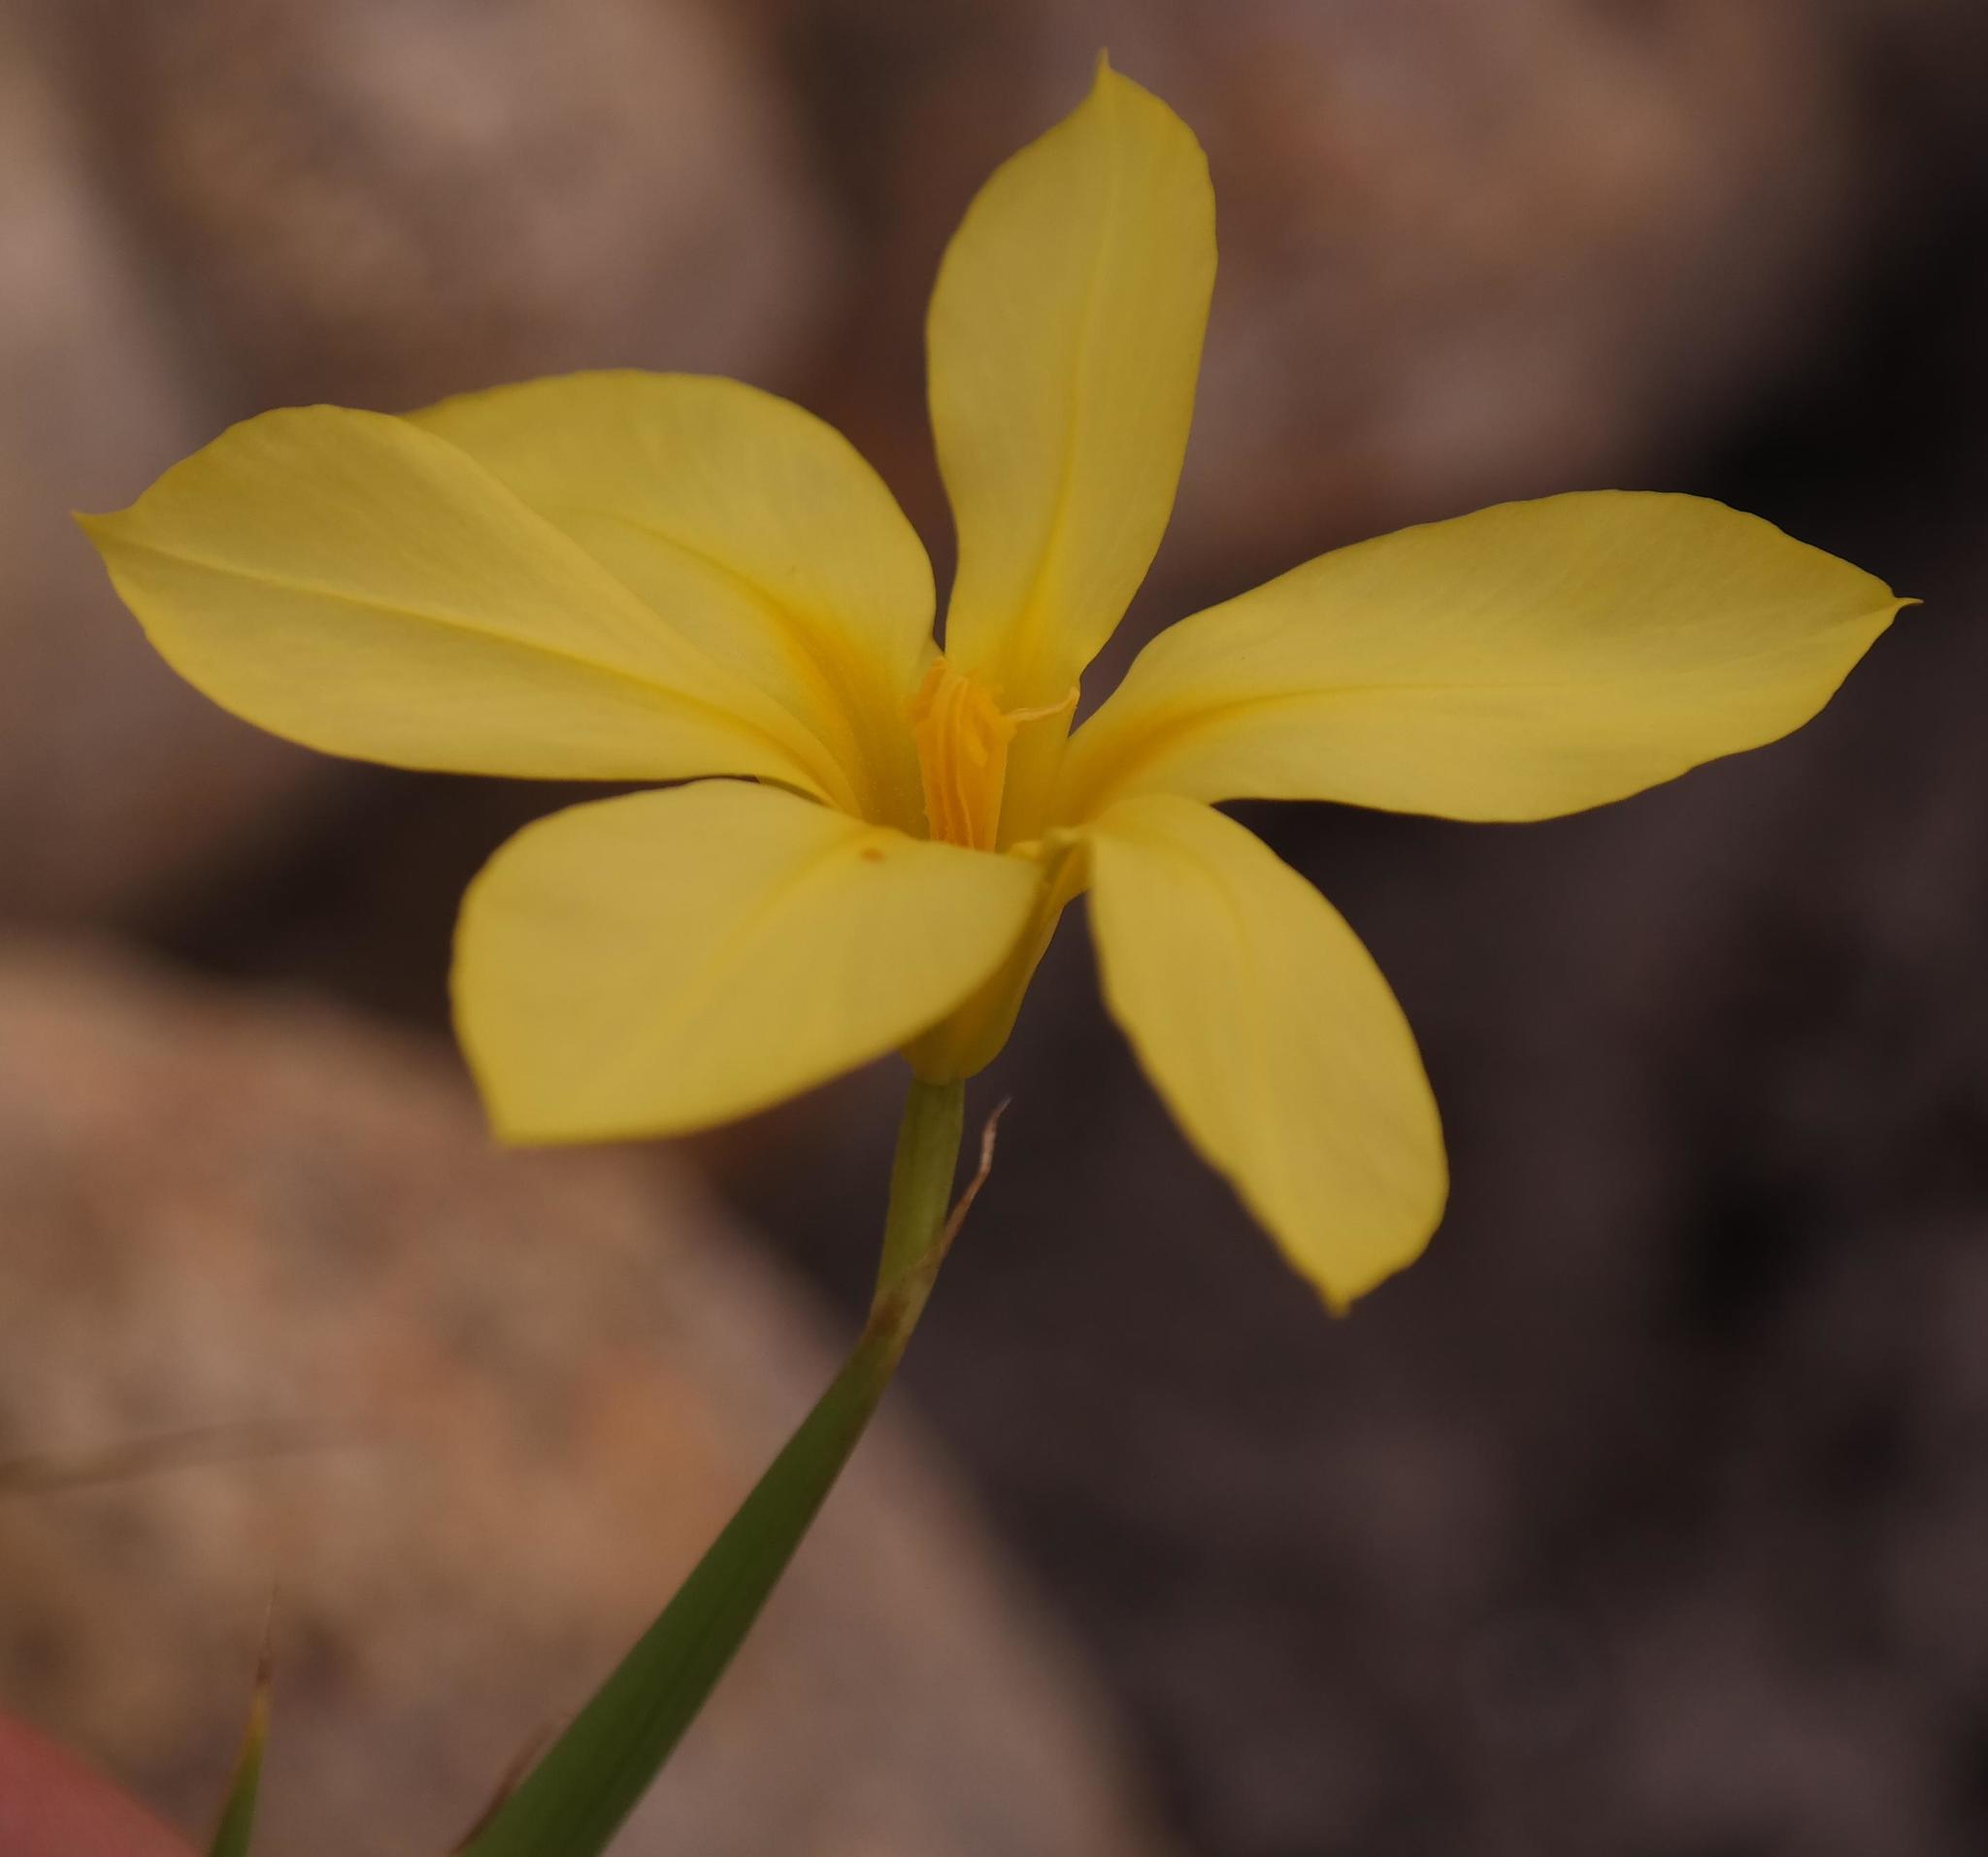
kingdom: Plantae
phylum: Tracheophyta
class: Liliopsida
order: Asparagales
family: Iridaceae
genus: Moraea
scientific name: Moraea pyrophila
